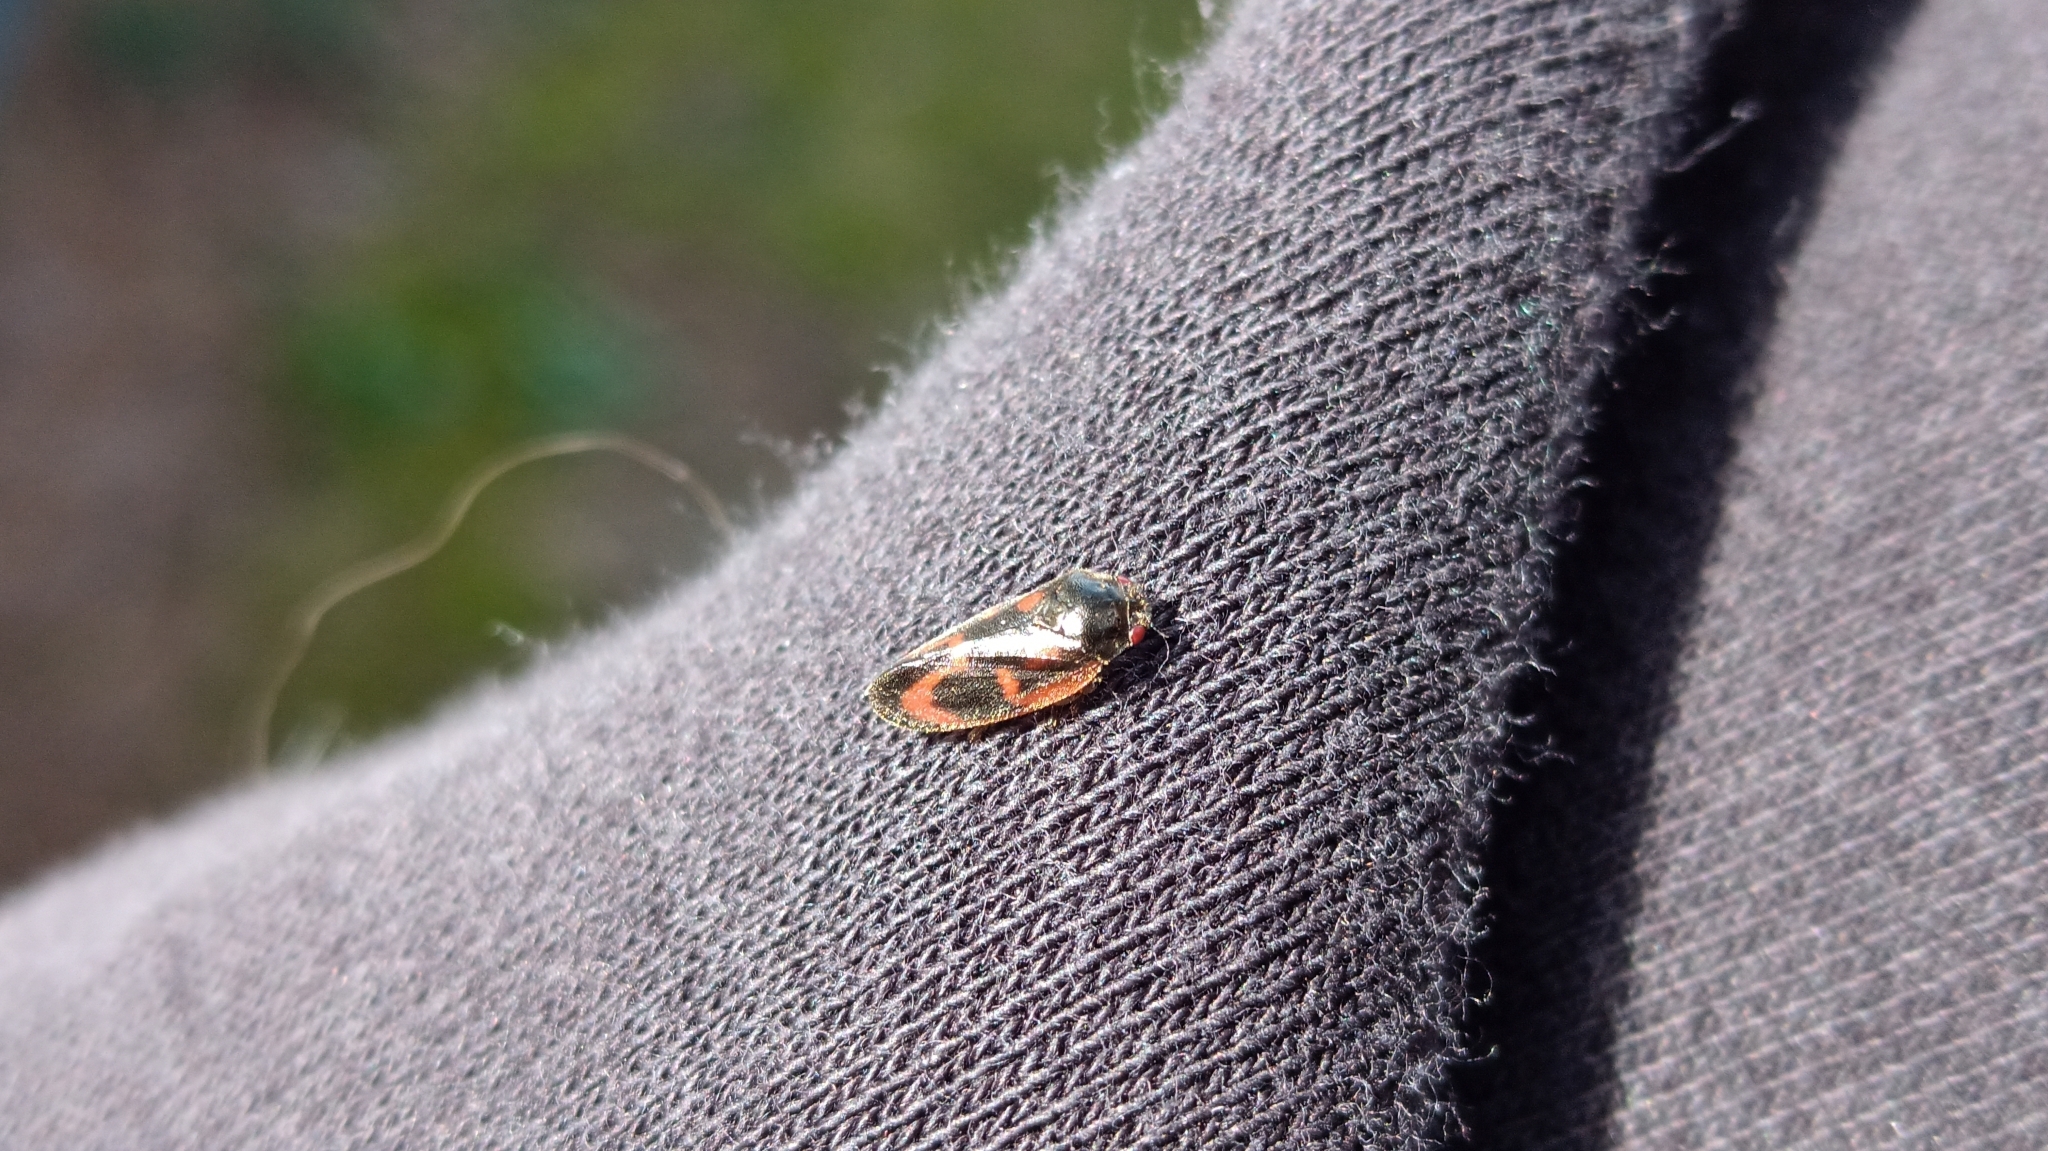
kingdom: Animalia
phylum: Arthropoda
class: Insecta
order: Hemiptera
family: Cercopidae
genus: Haematoloma
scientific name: Haematoloma dorsata
